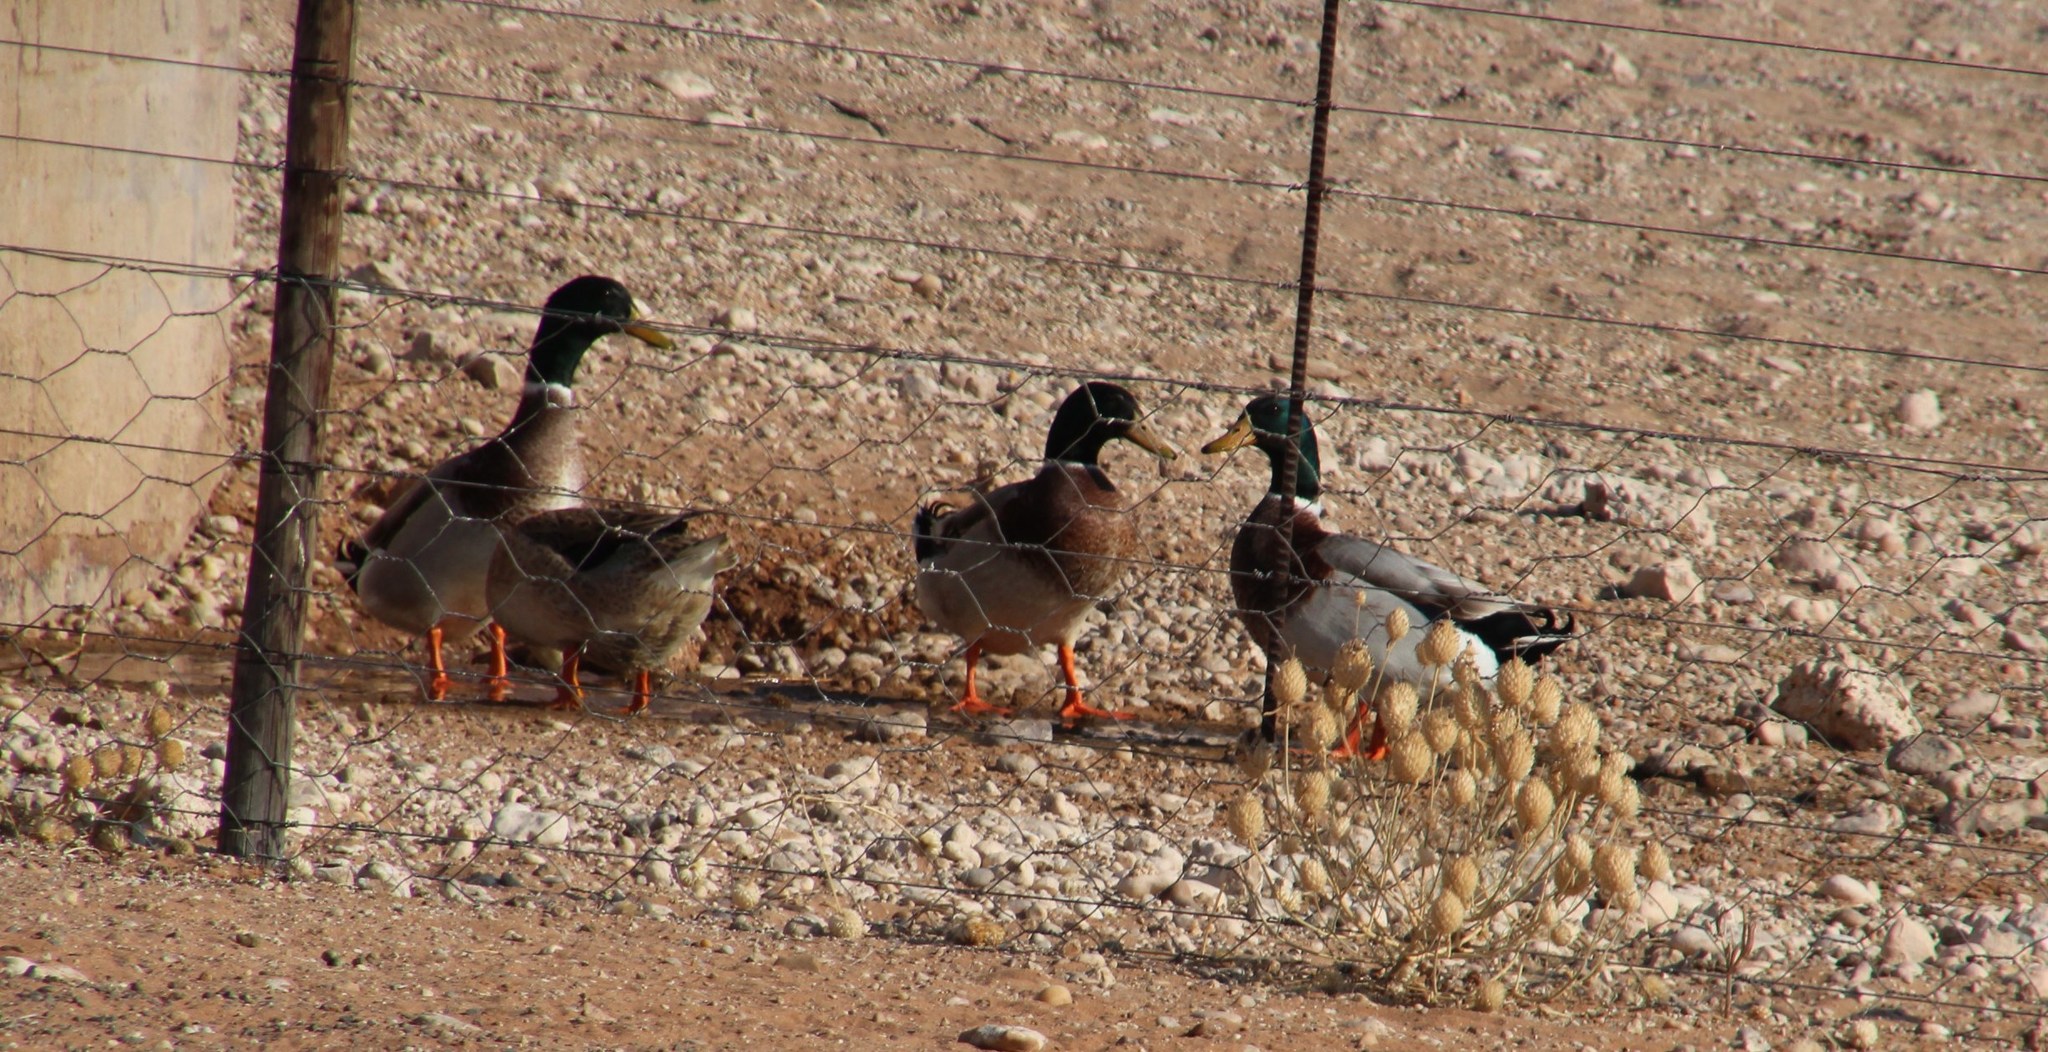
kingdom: Animalia
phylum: Chordata
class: Aves
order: Anseriformes
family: Anatidae
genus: Anas
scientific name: Anas platyrhynchos
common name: Mallard
